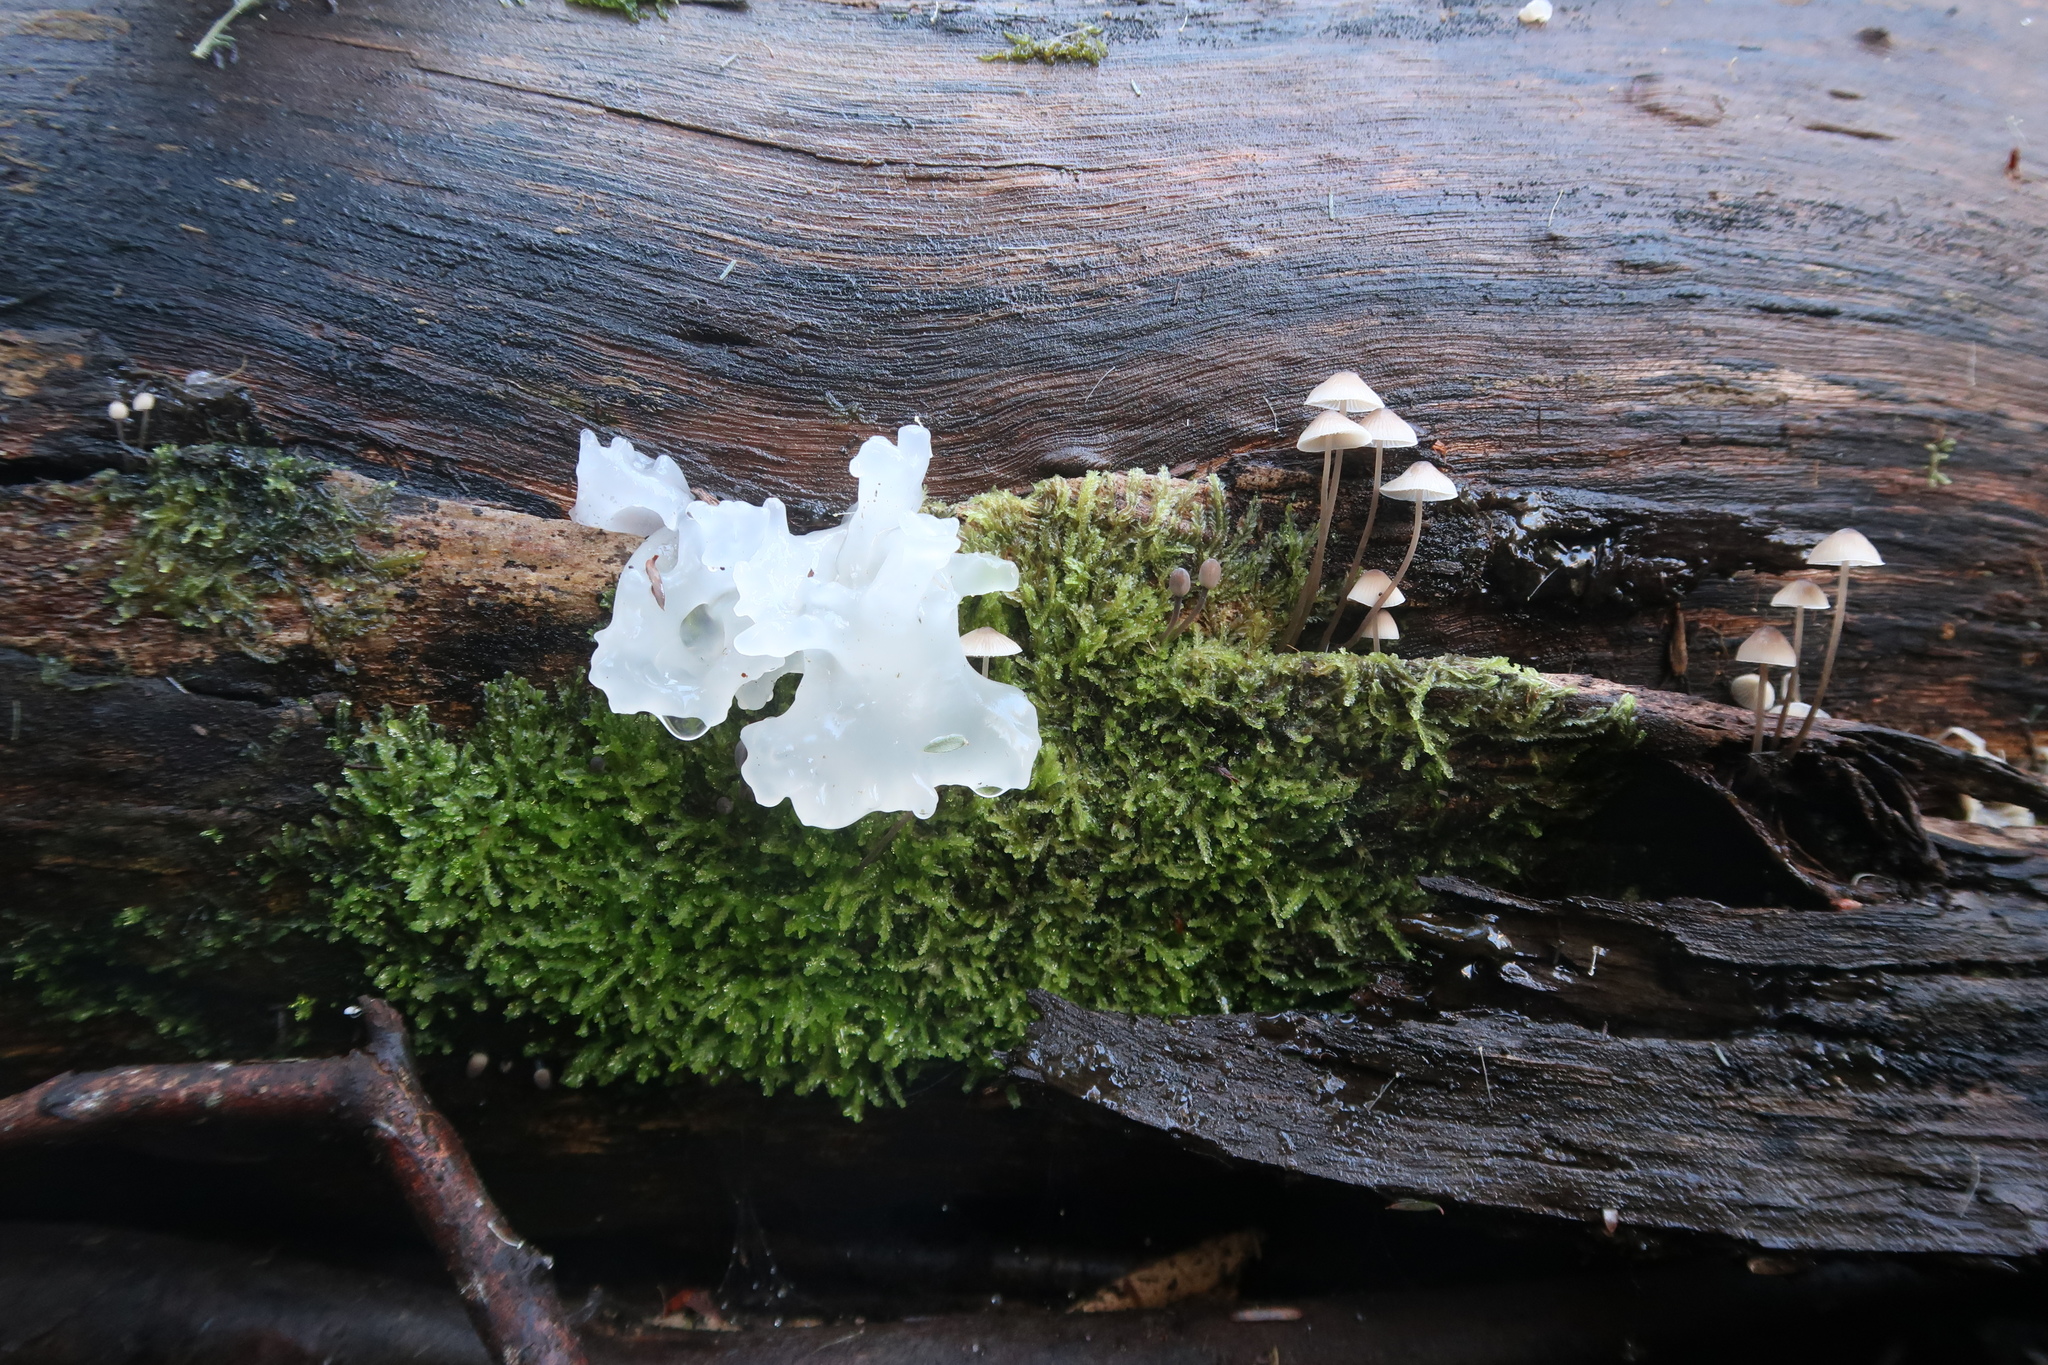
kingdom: Fungi
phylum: Basidiomycota
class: Tremellomycetes
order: Tremellales
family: Tremellaceae
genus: Tremella
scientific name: Tremella fuciformis
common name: Snow fungus
